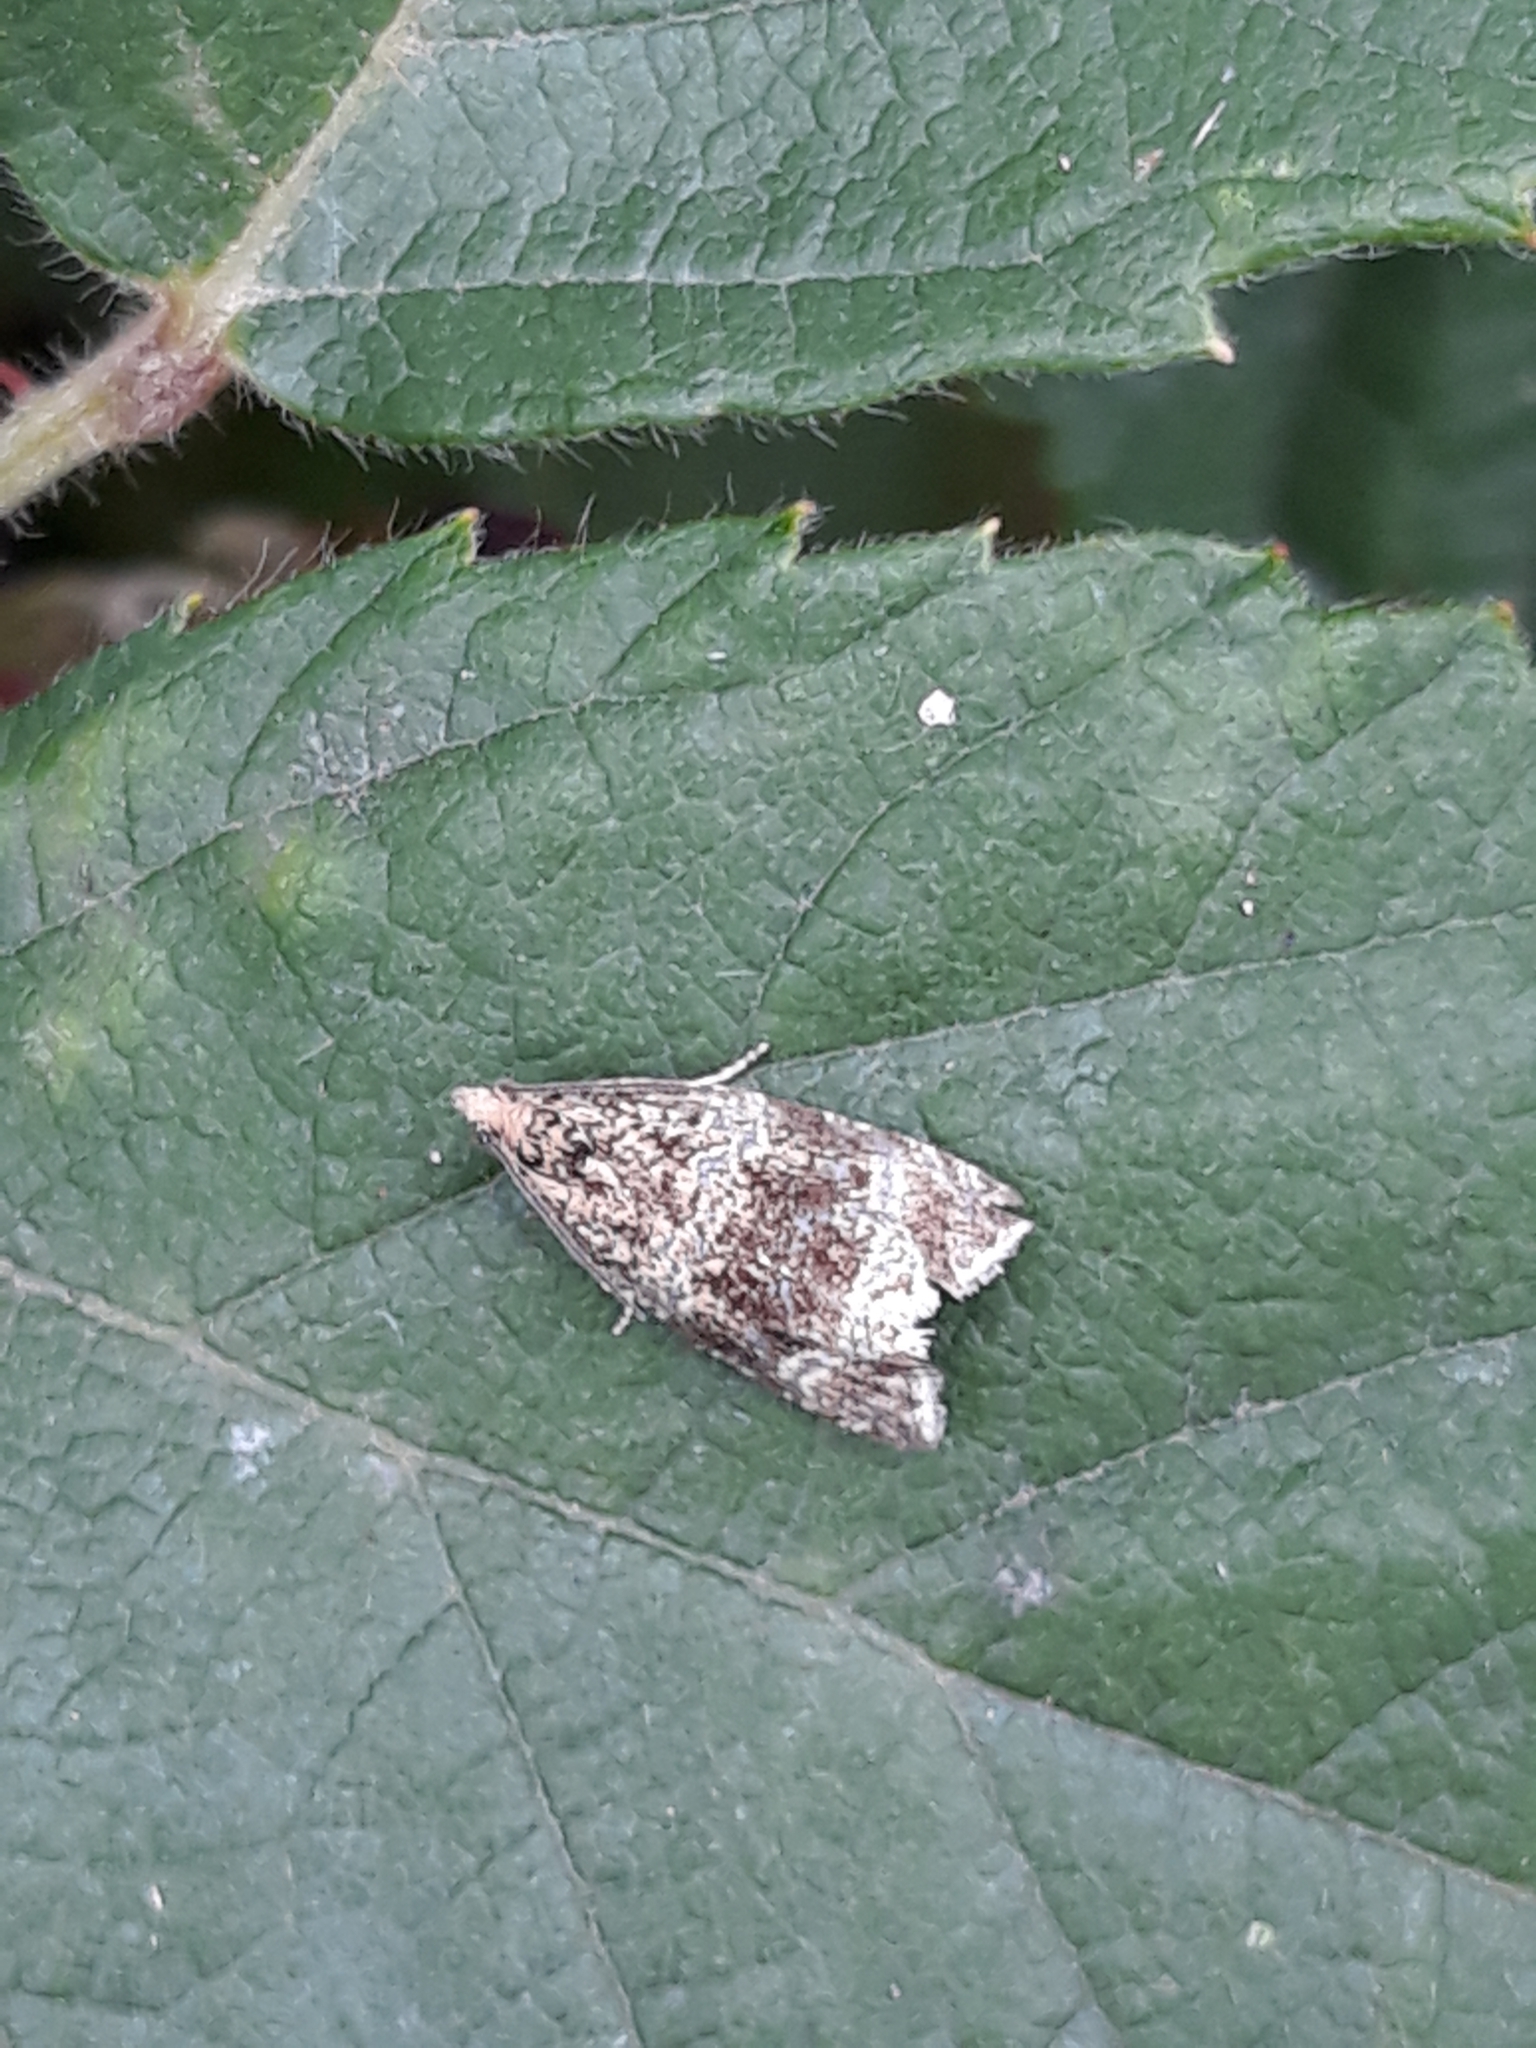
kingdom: Animalia
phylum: Arthropoda
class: Insecta
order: Lepidoptera
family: Tortricidae
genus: Syricoris
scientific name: Syricoris lacunana
